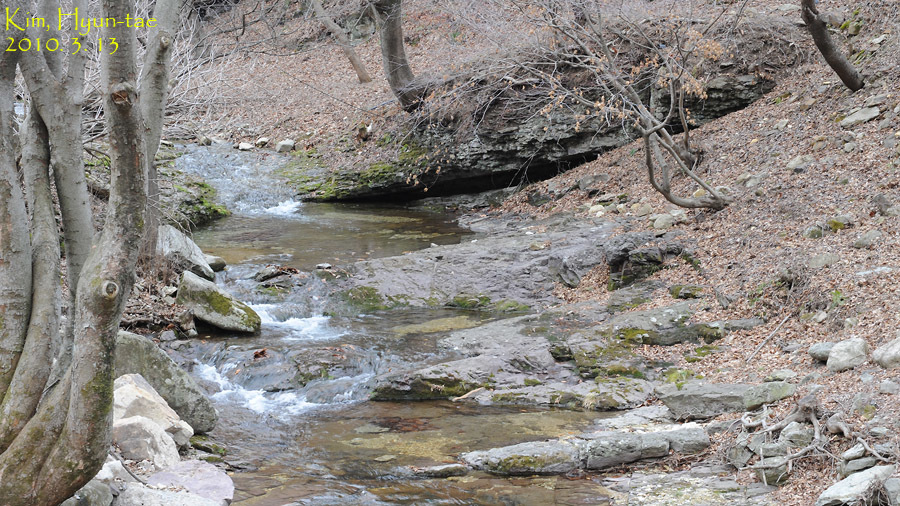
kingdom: Animalia
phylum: Chordata
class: Amphibia
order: Anura
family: Ranidae
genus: Rana
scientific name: Rana huanrenensis
